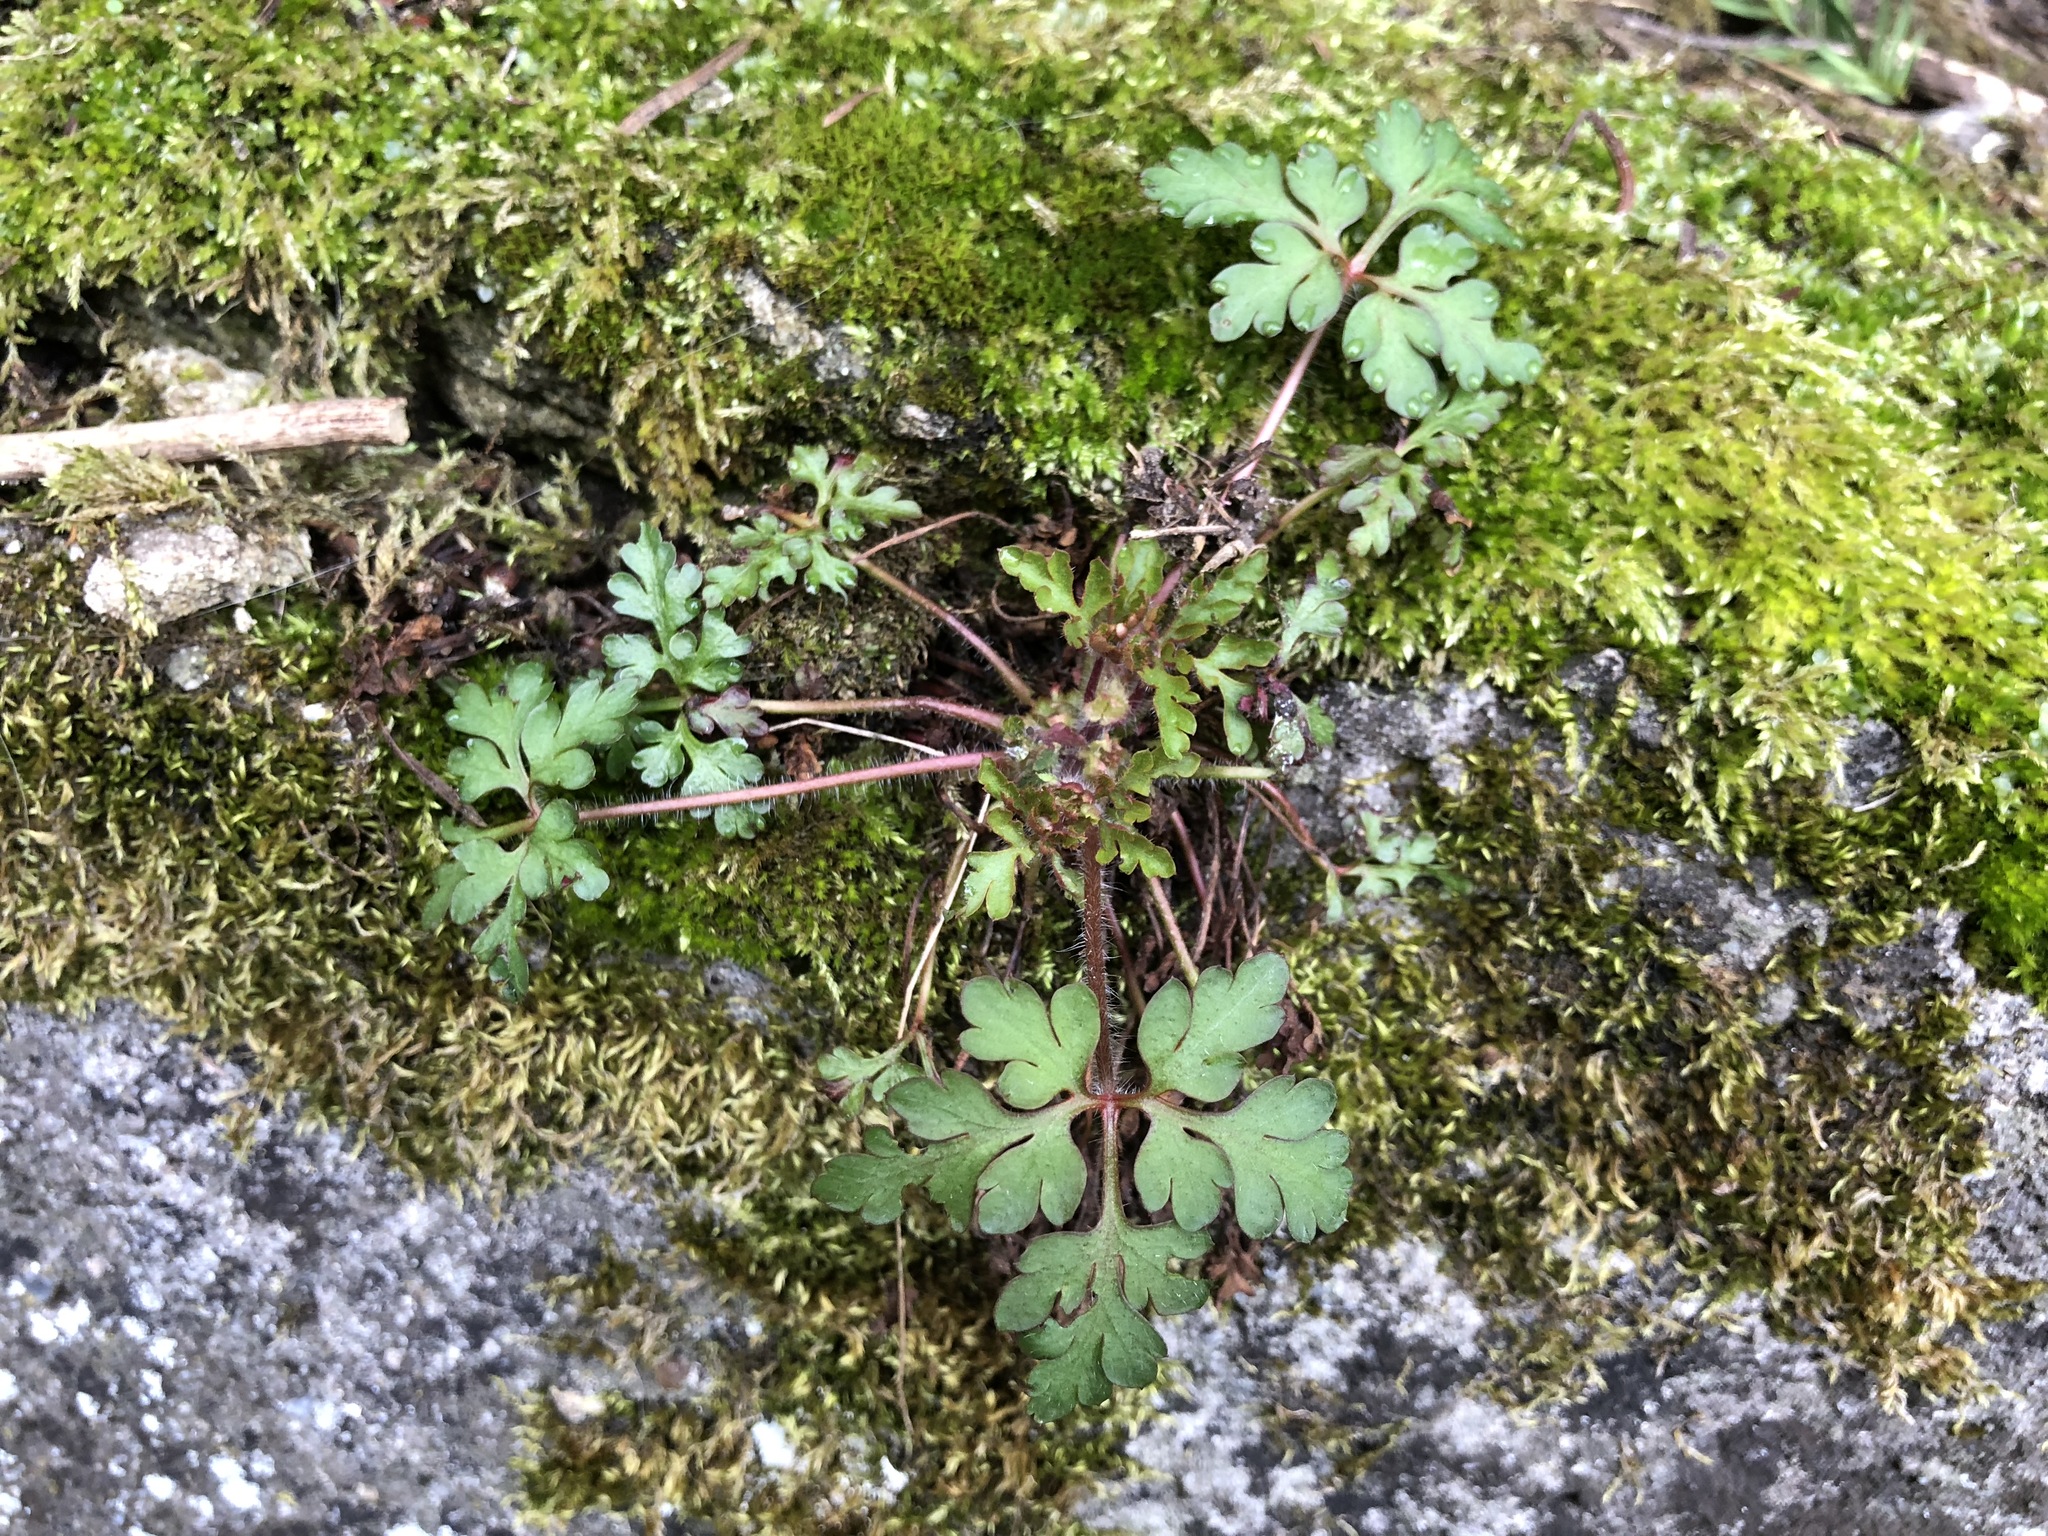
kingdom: Plantae
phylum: Tracheophyta
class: Magnoliopsida
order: Geraniales
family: Geraniaceae
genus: Geranium
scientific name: Geranium robertianum
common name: Herb-robert
